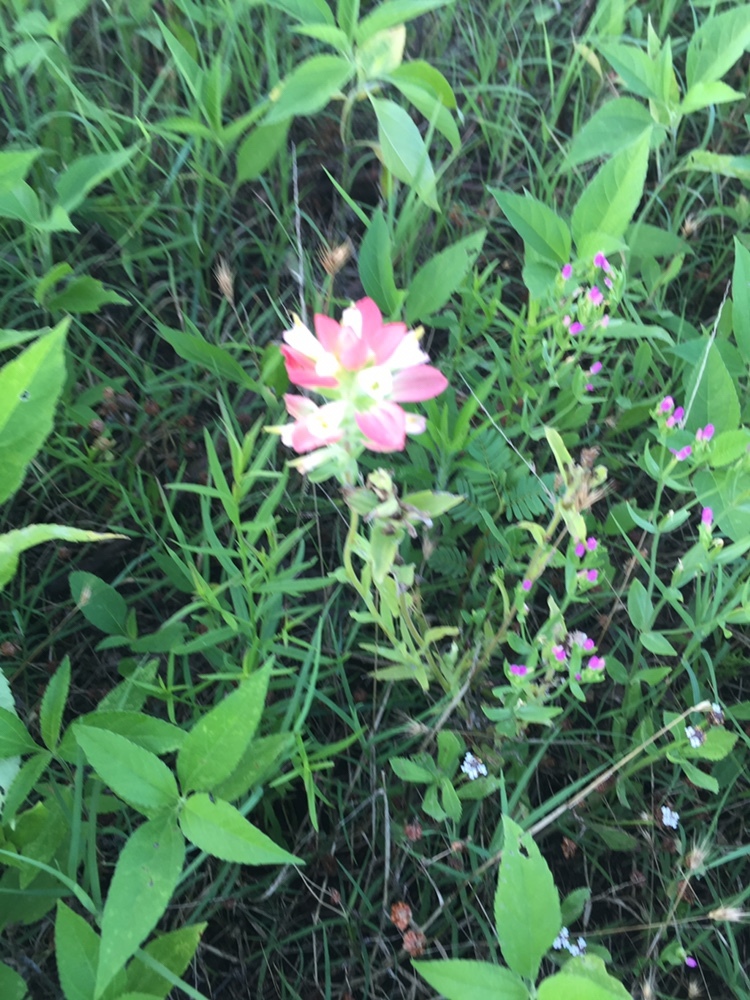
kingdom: Plantae
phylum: Tracheophyta
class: Magnoliopsida
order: Lamiales
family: Orobanchaceae
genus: Castilleja
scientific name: Castilleja indivisa
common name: Texas paintbrush
